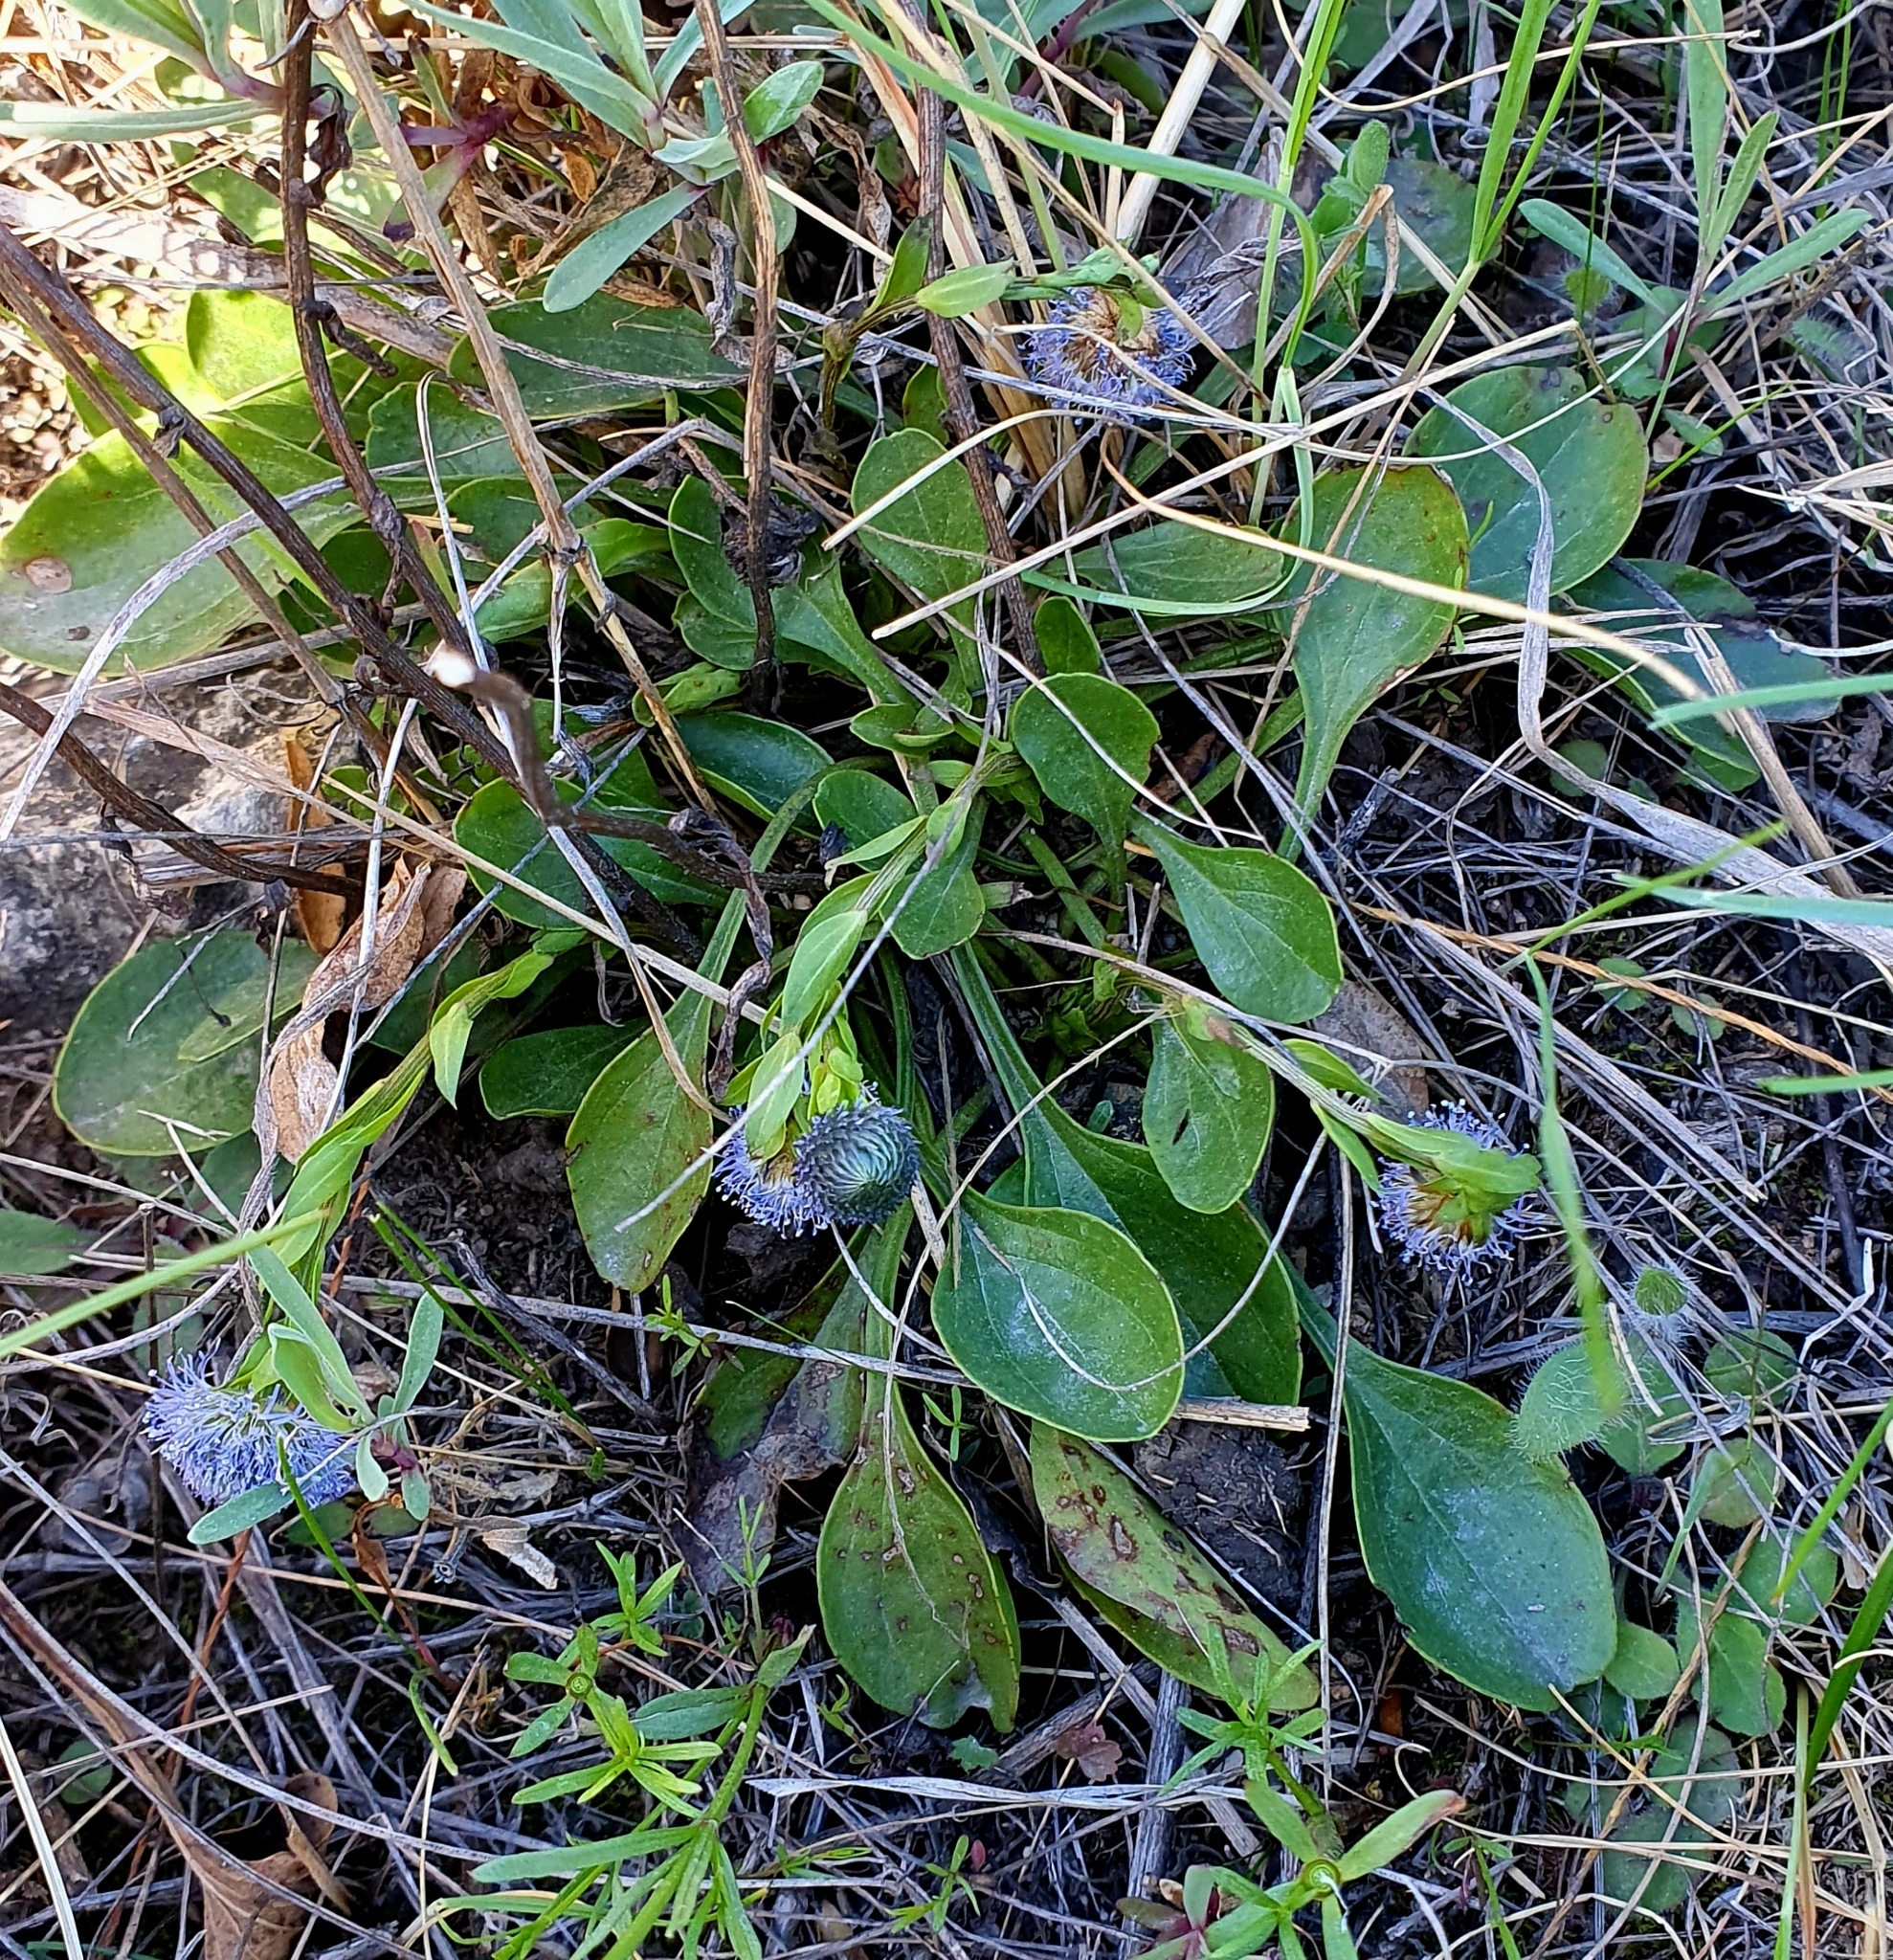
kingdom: Plantae
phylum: Tracheophyta
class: Magnoliopsida
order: Lamiales
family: Plantaginaceae
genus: Globularia
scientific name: Globularia bisnagarica
